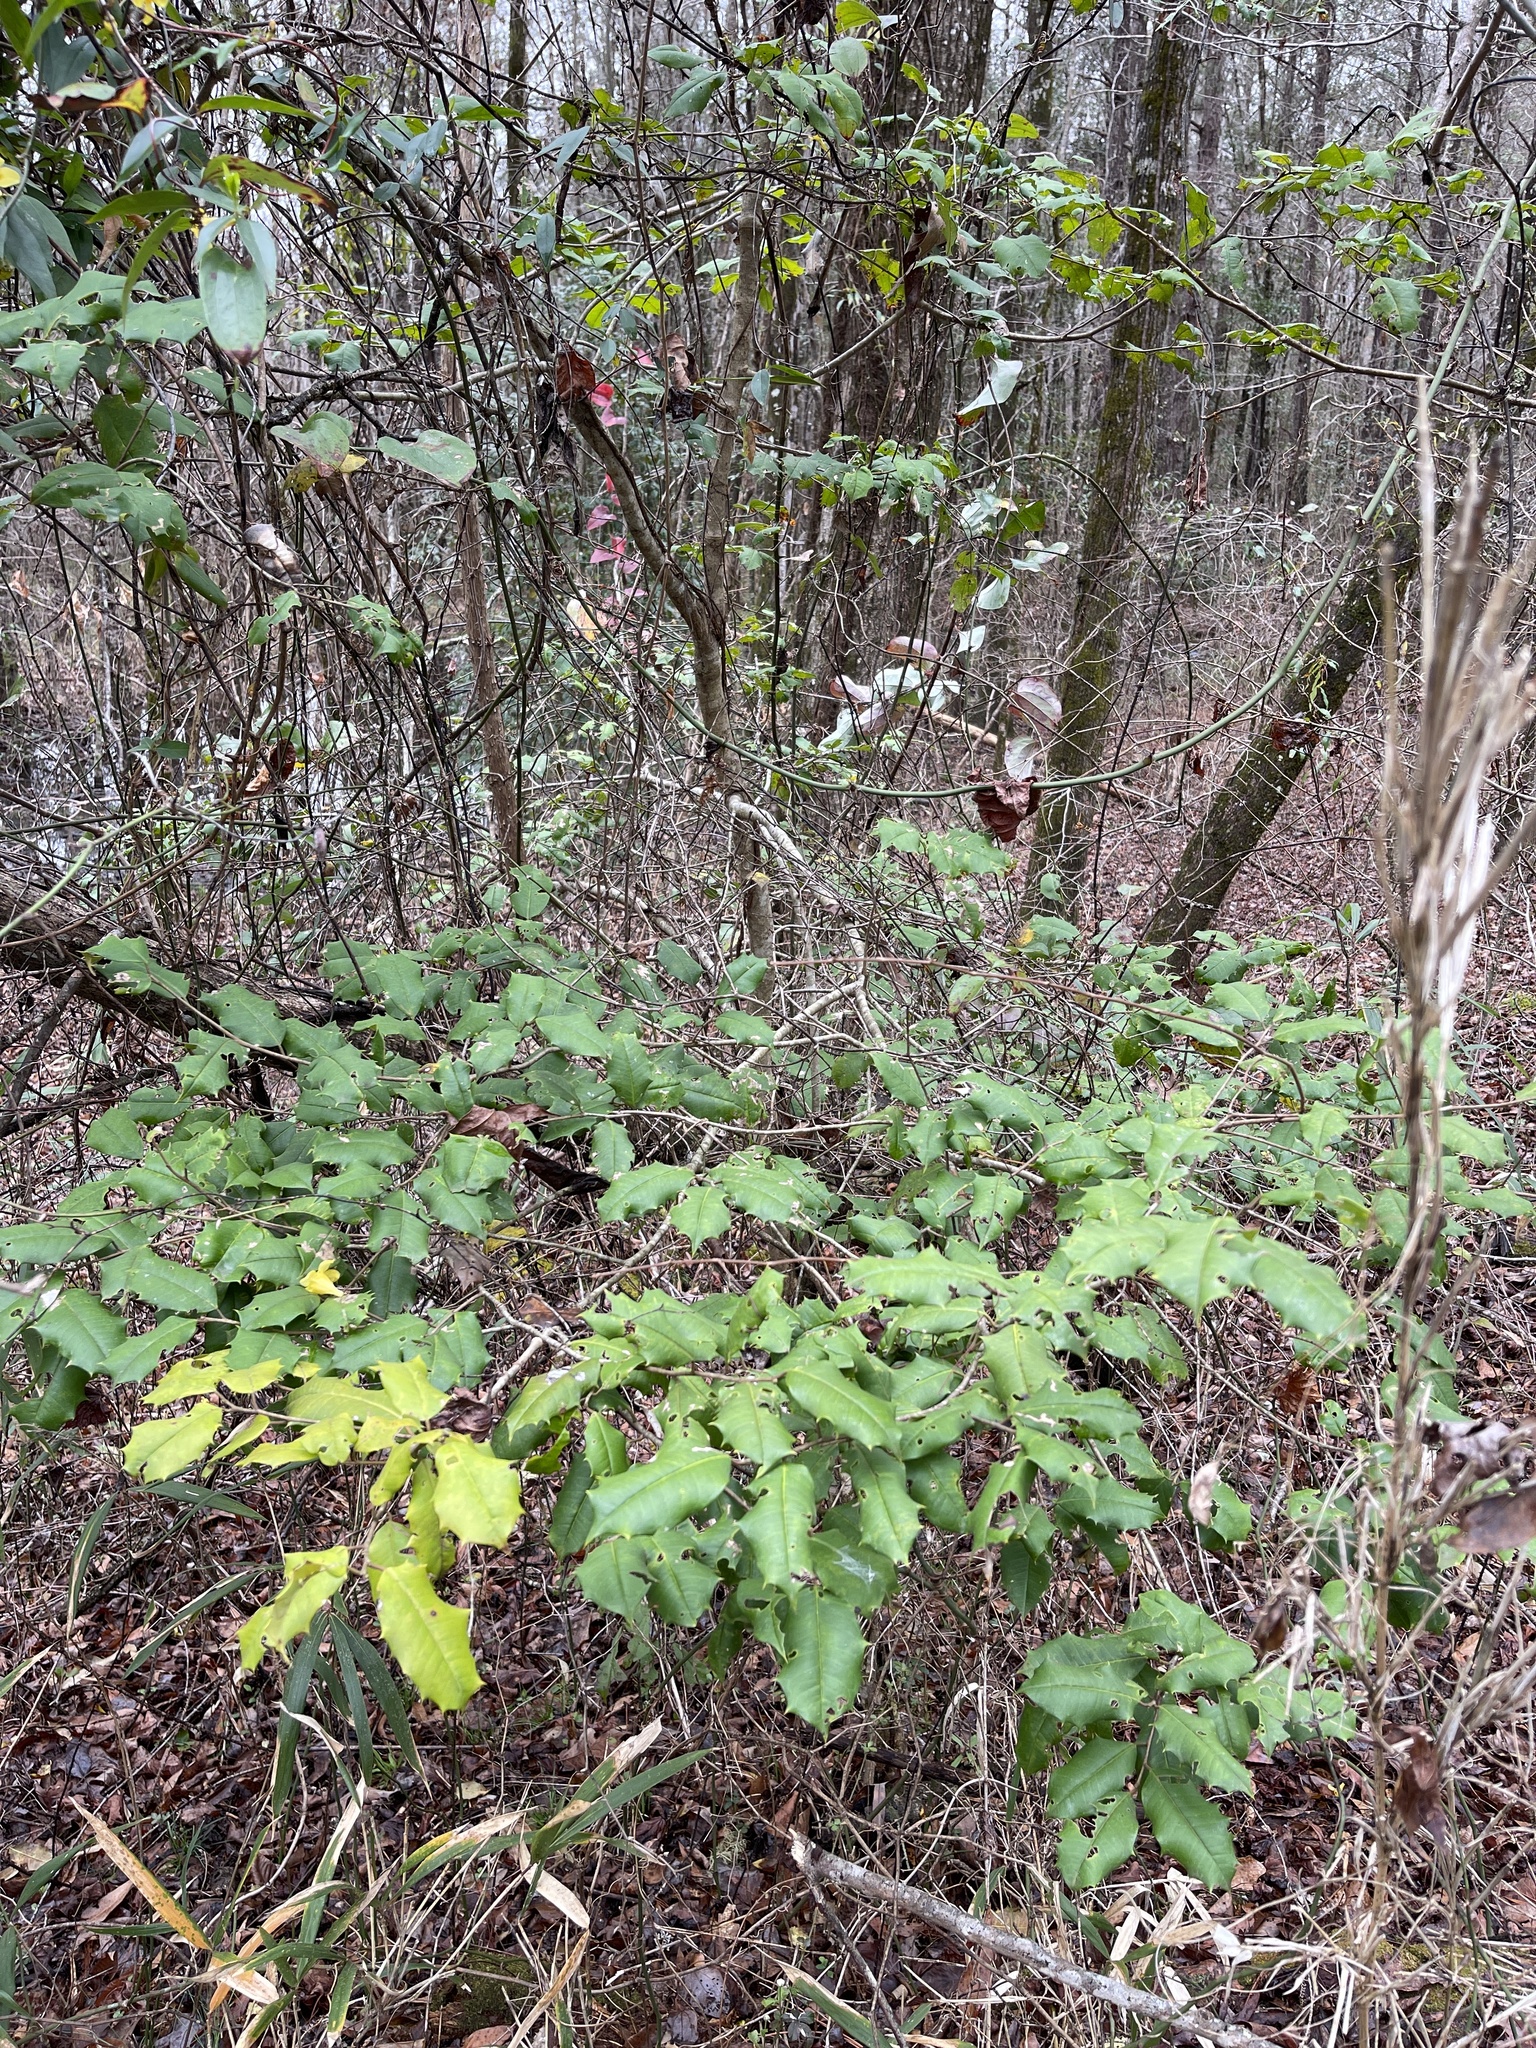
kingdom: Plantae
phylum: Tracheophyta
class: Magnoliopsida
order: Aquifoliales
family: Aquifoliaceae
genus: Ilex
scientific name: Ilex opaca
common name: American holly
